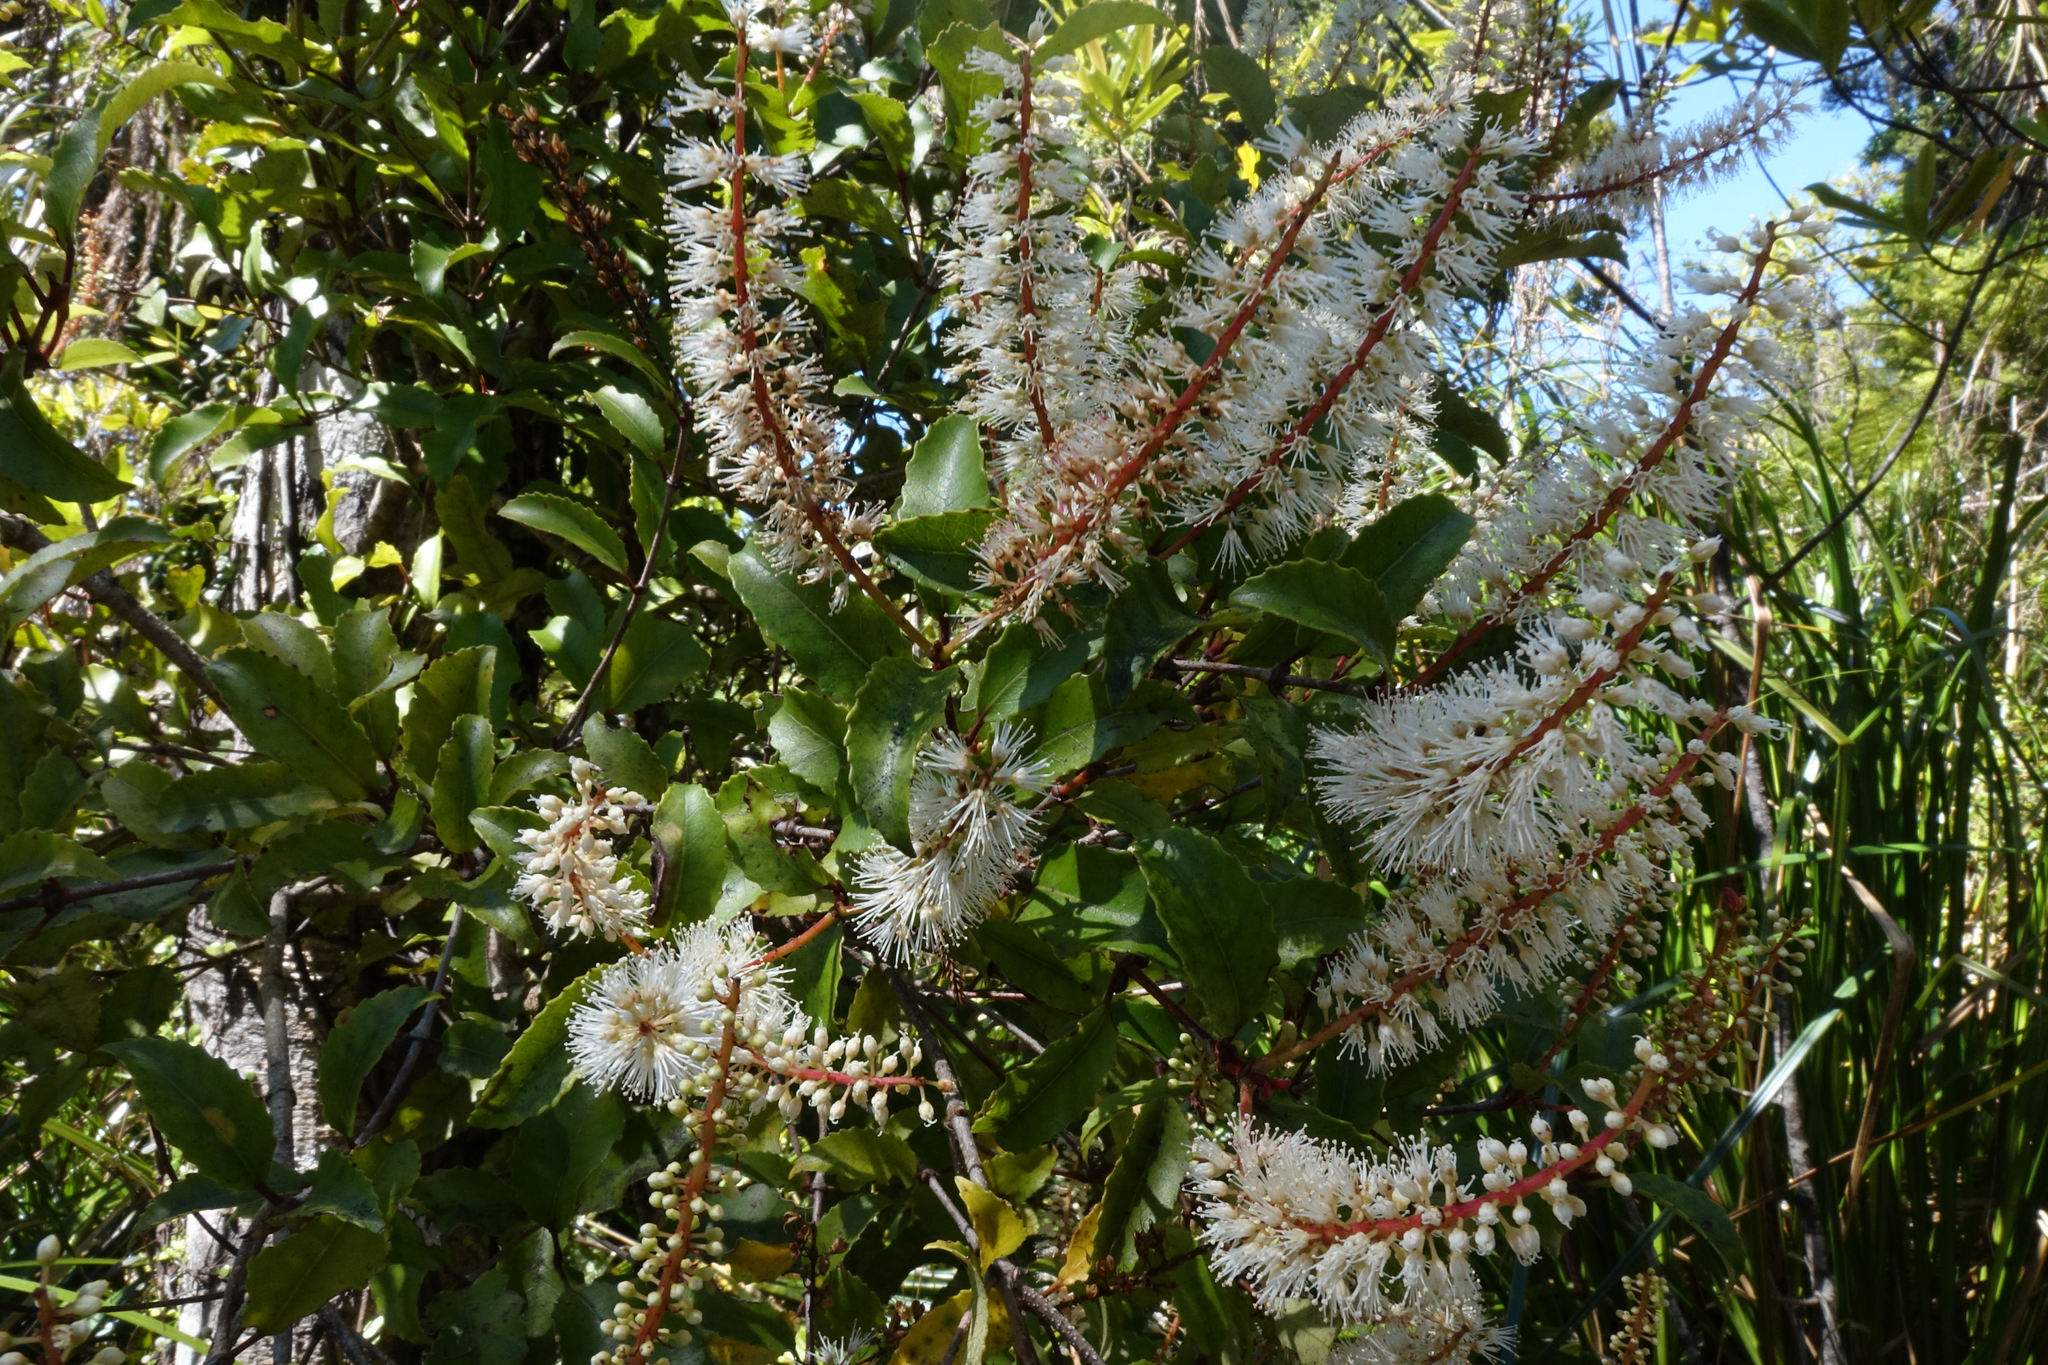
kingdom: Plantae
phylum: Tracheophyta
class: Magnoliopsida
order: Oxalidales
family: Cunoniaceae
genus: Pterophylla
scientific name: Pterophylla racemosa
